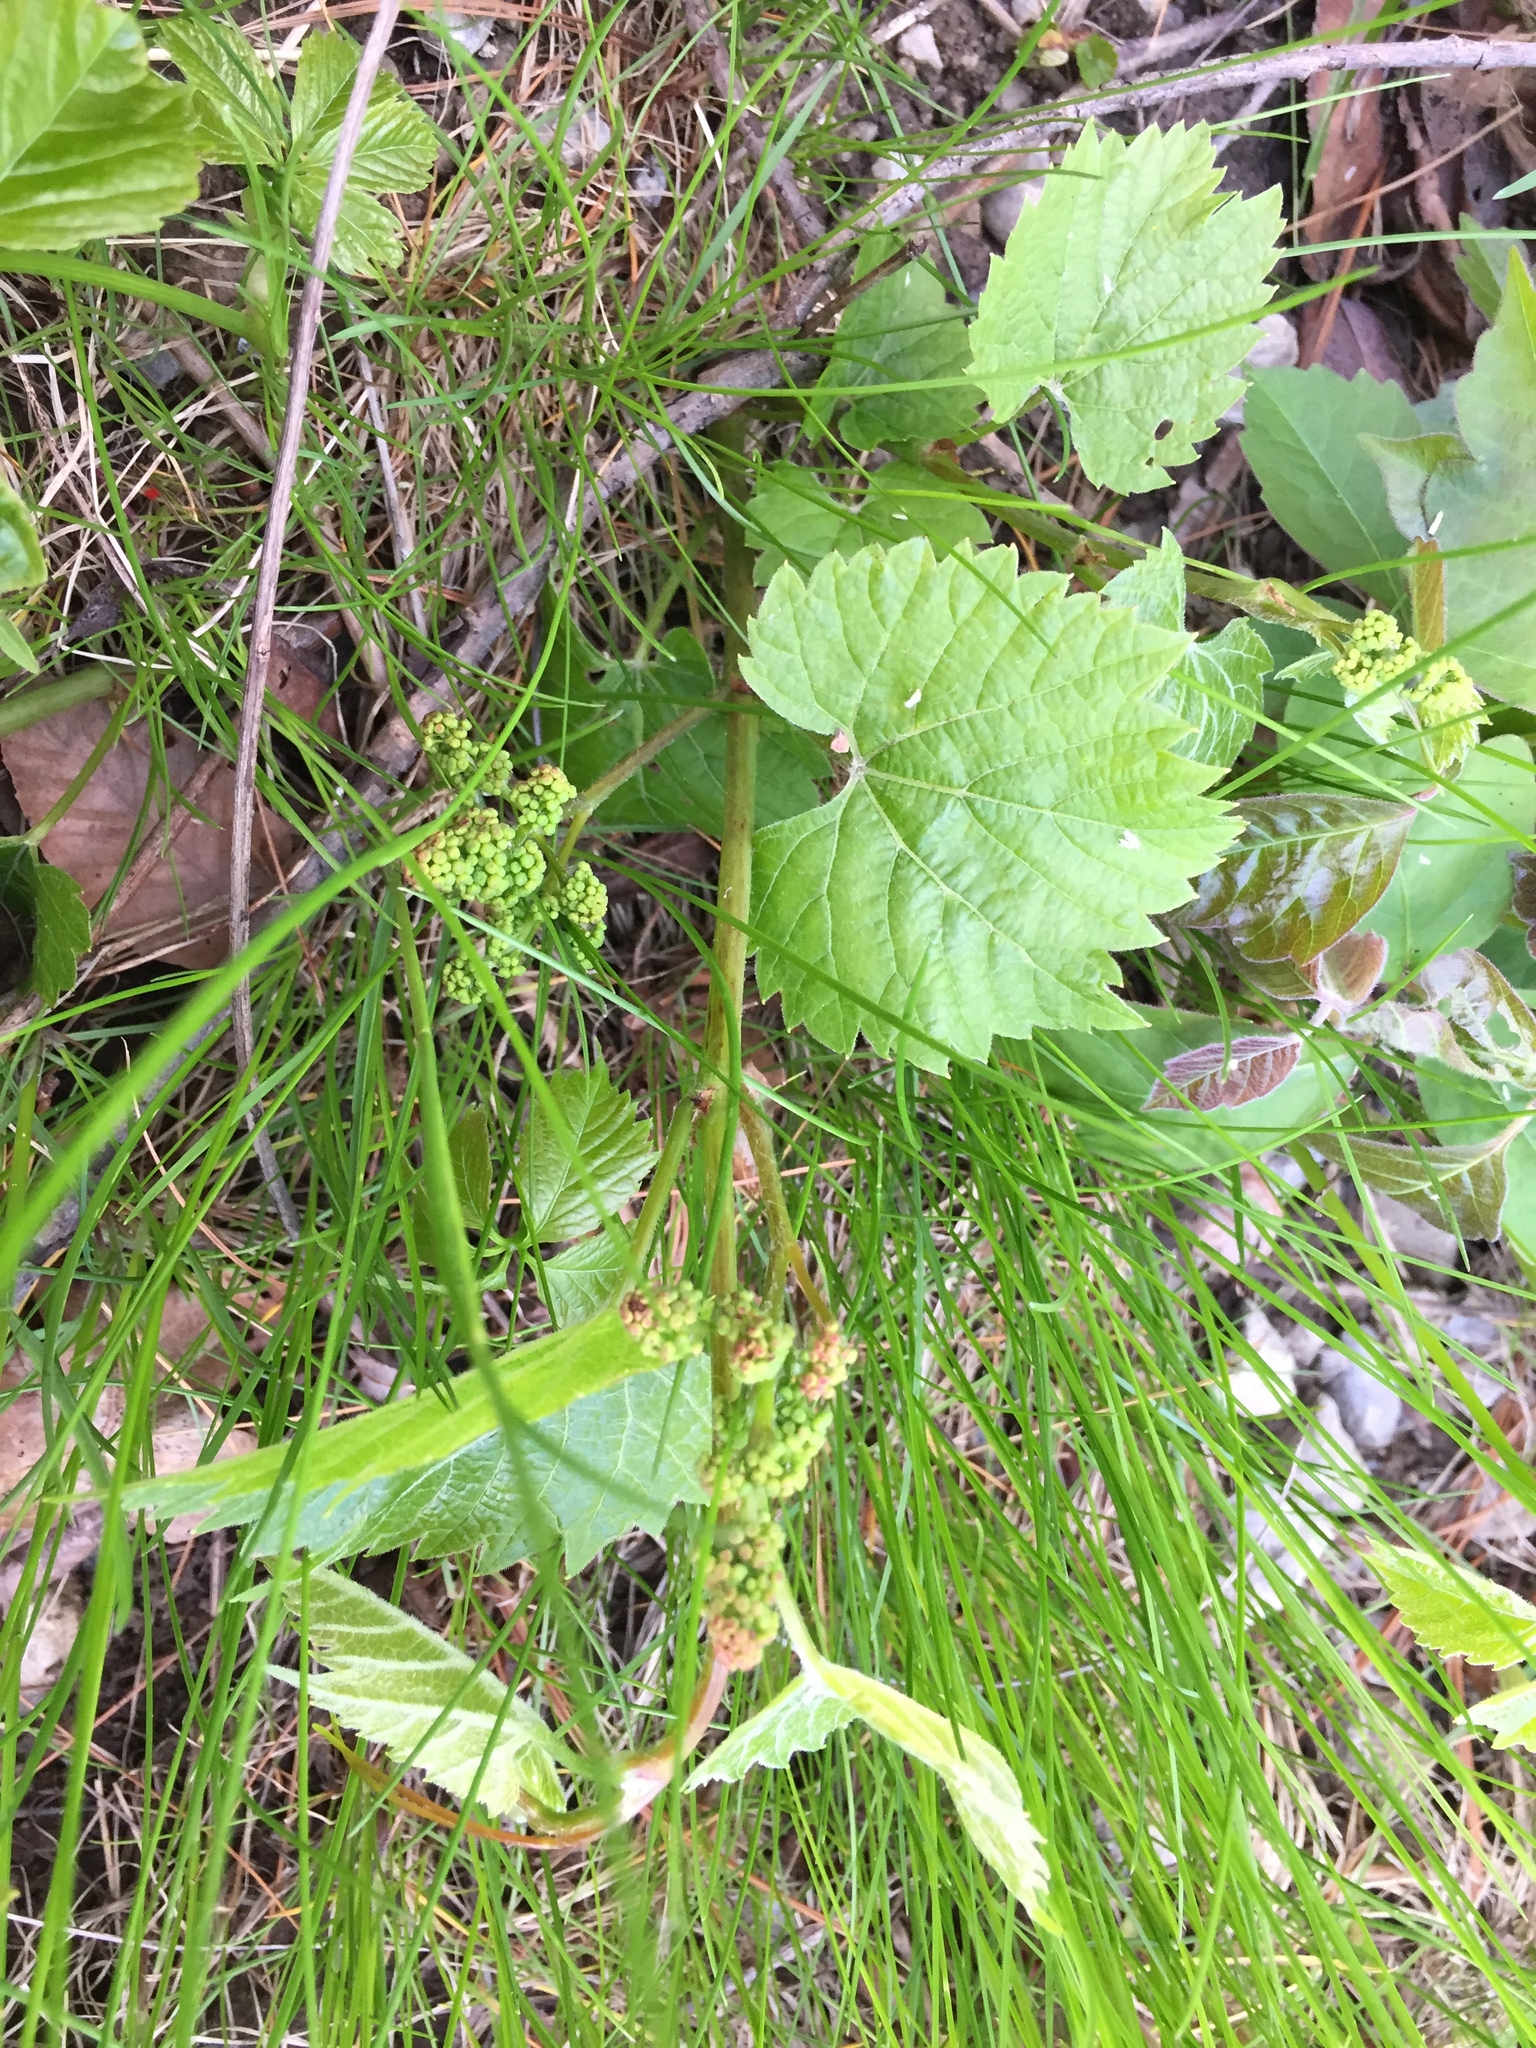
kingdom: Plantae
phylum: Tracheophyta
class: Magnoliopsida
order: Vitales
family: Vitaceae
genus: Vitis
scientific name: Vitis riparia
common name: Frost grape
